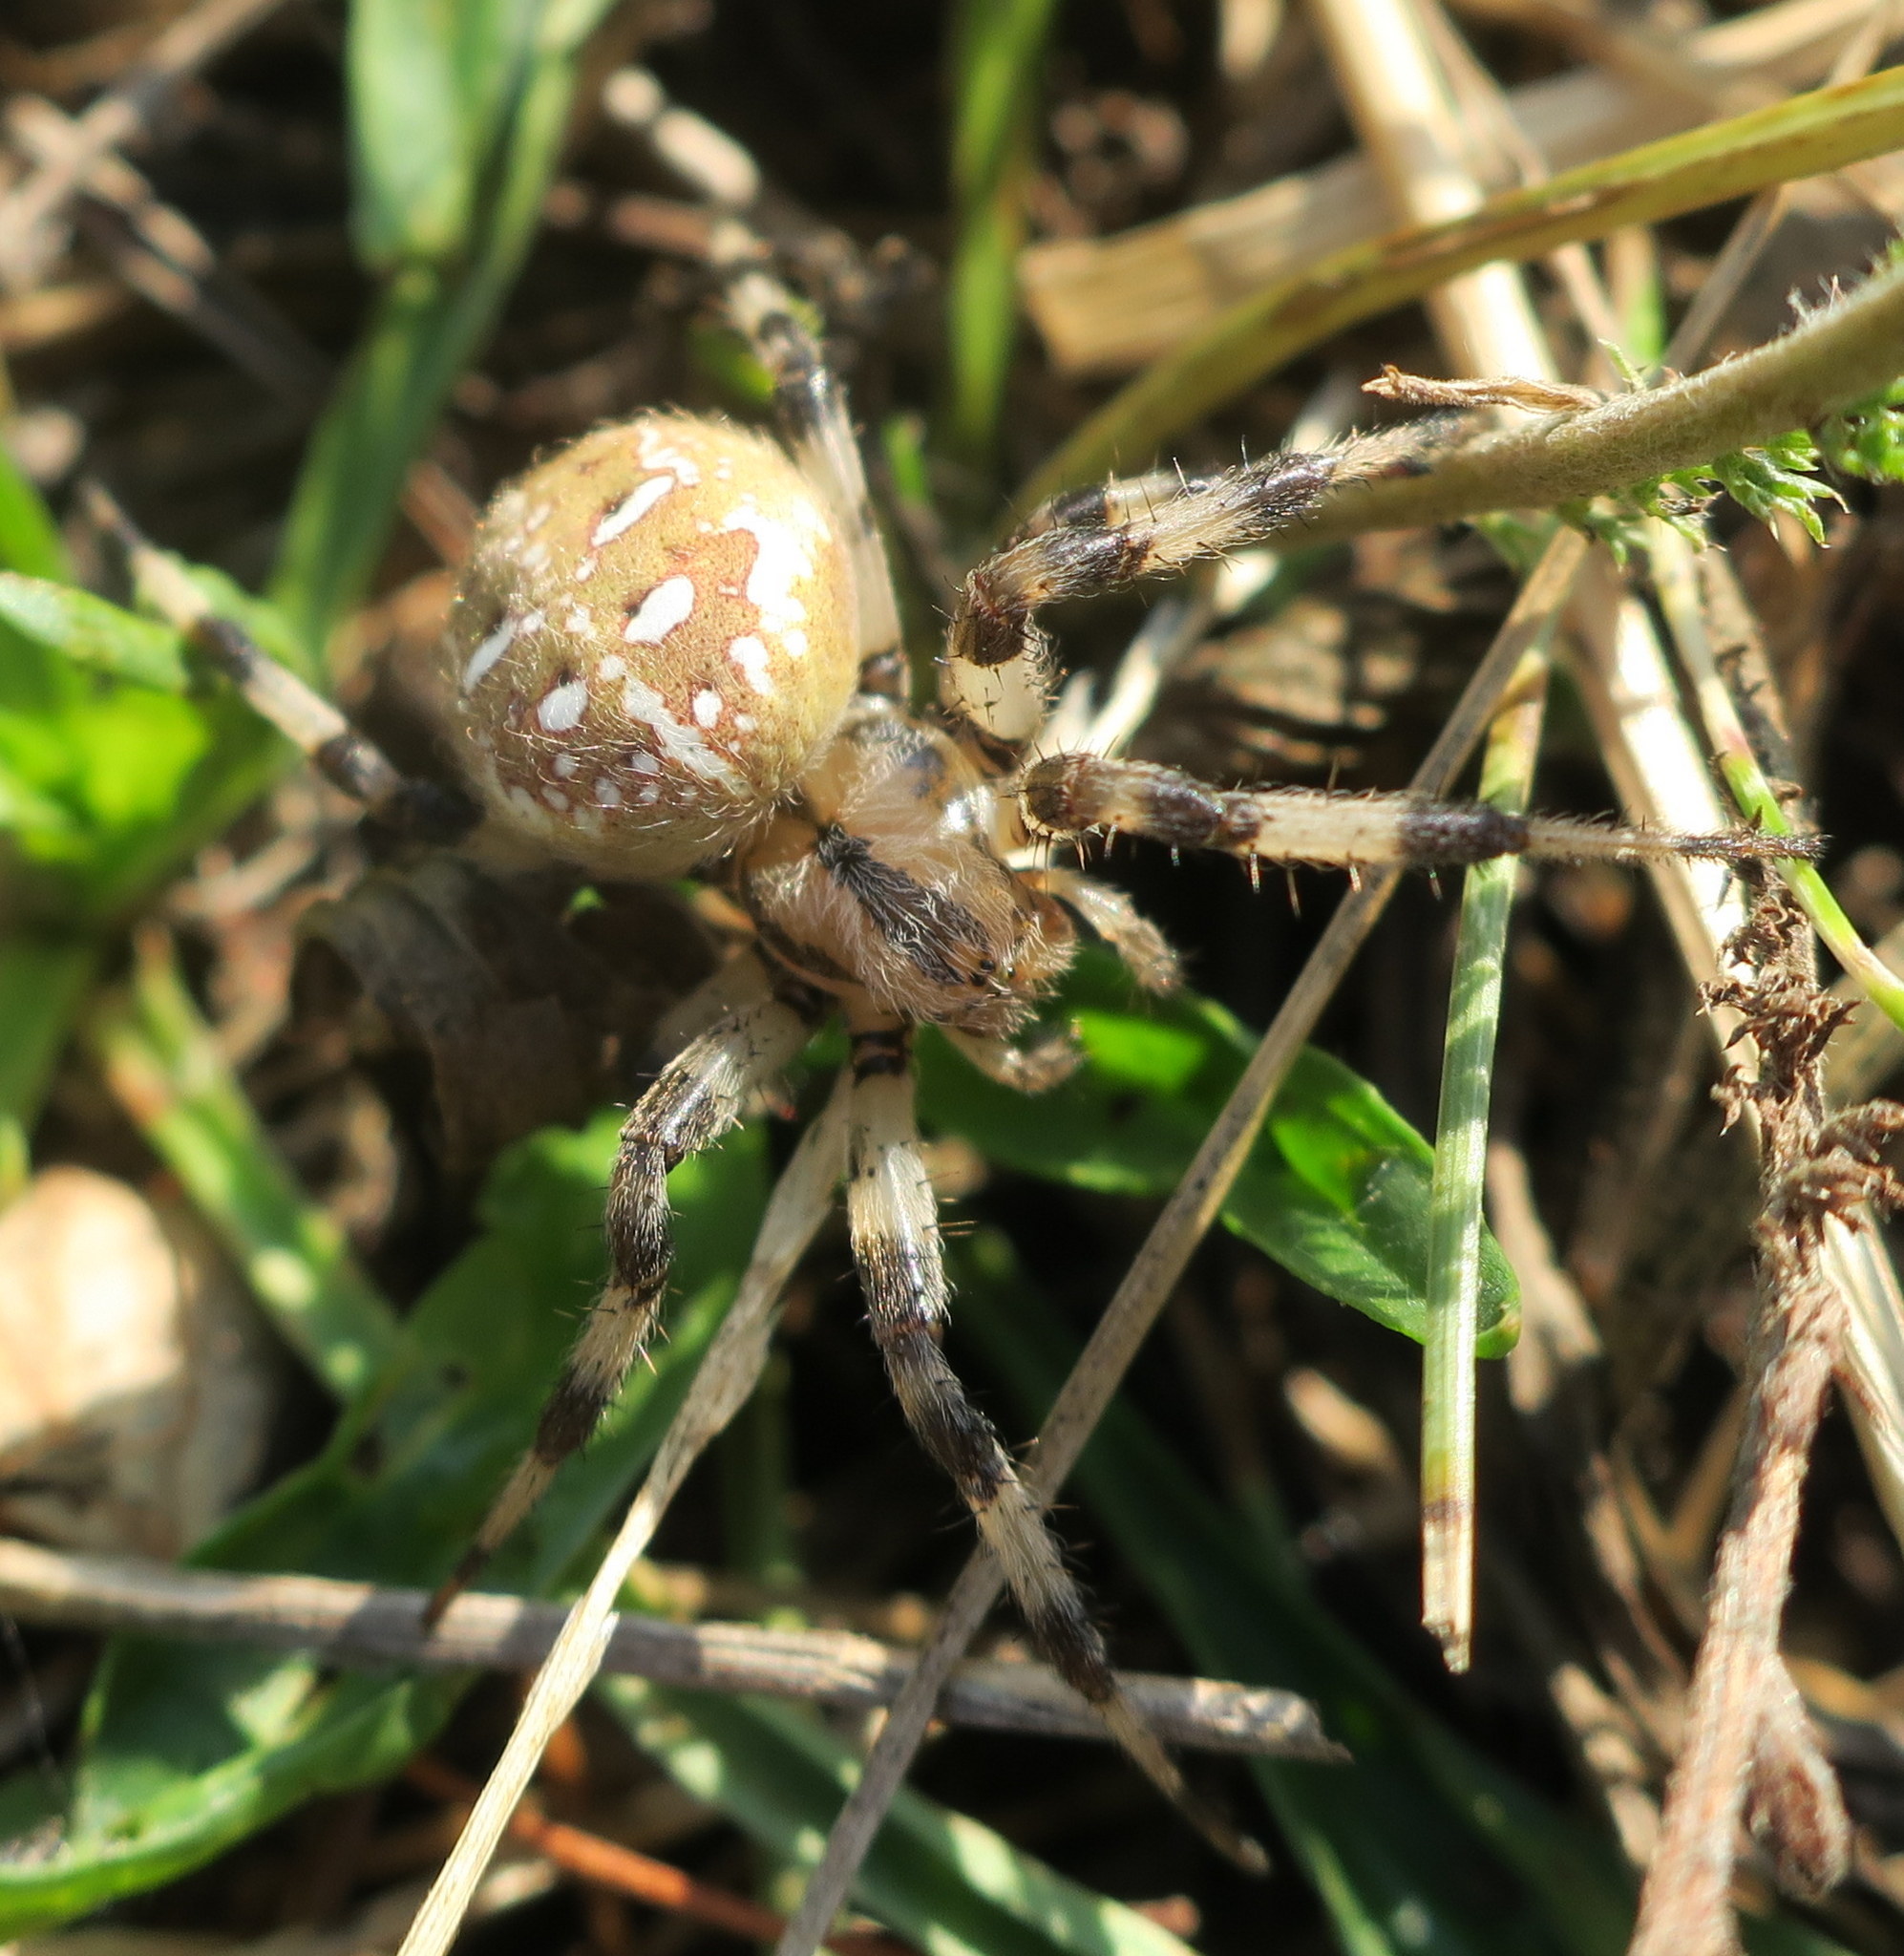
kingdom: Animalia
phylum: Arthropoda
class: Arachnida
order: Araneae
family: Araneidae
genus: Araneus
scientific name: Araneus quadratus
